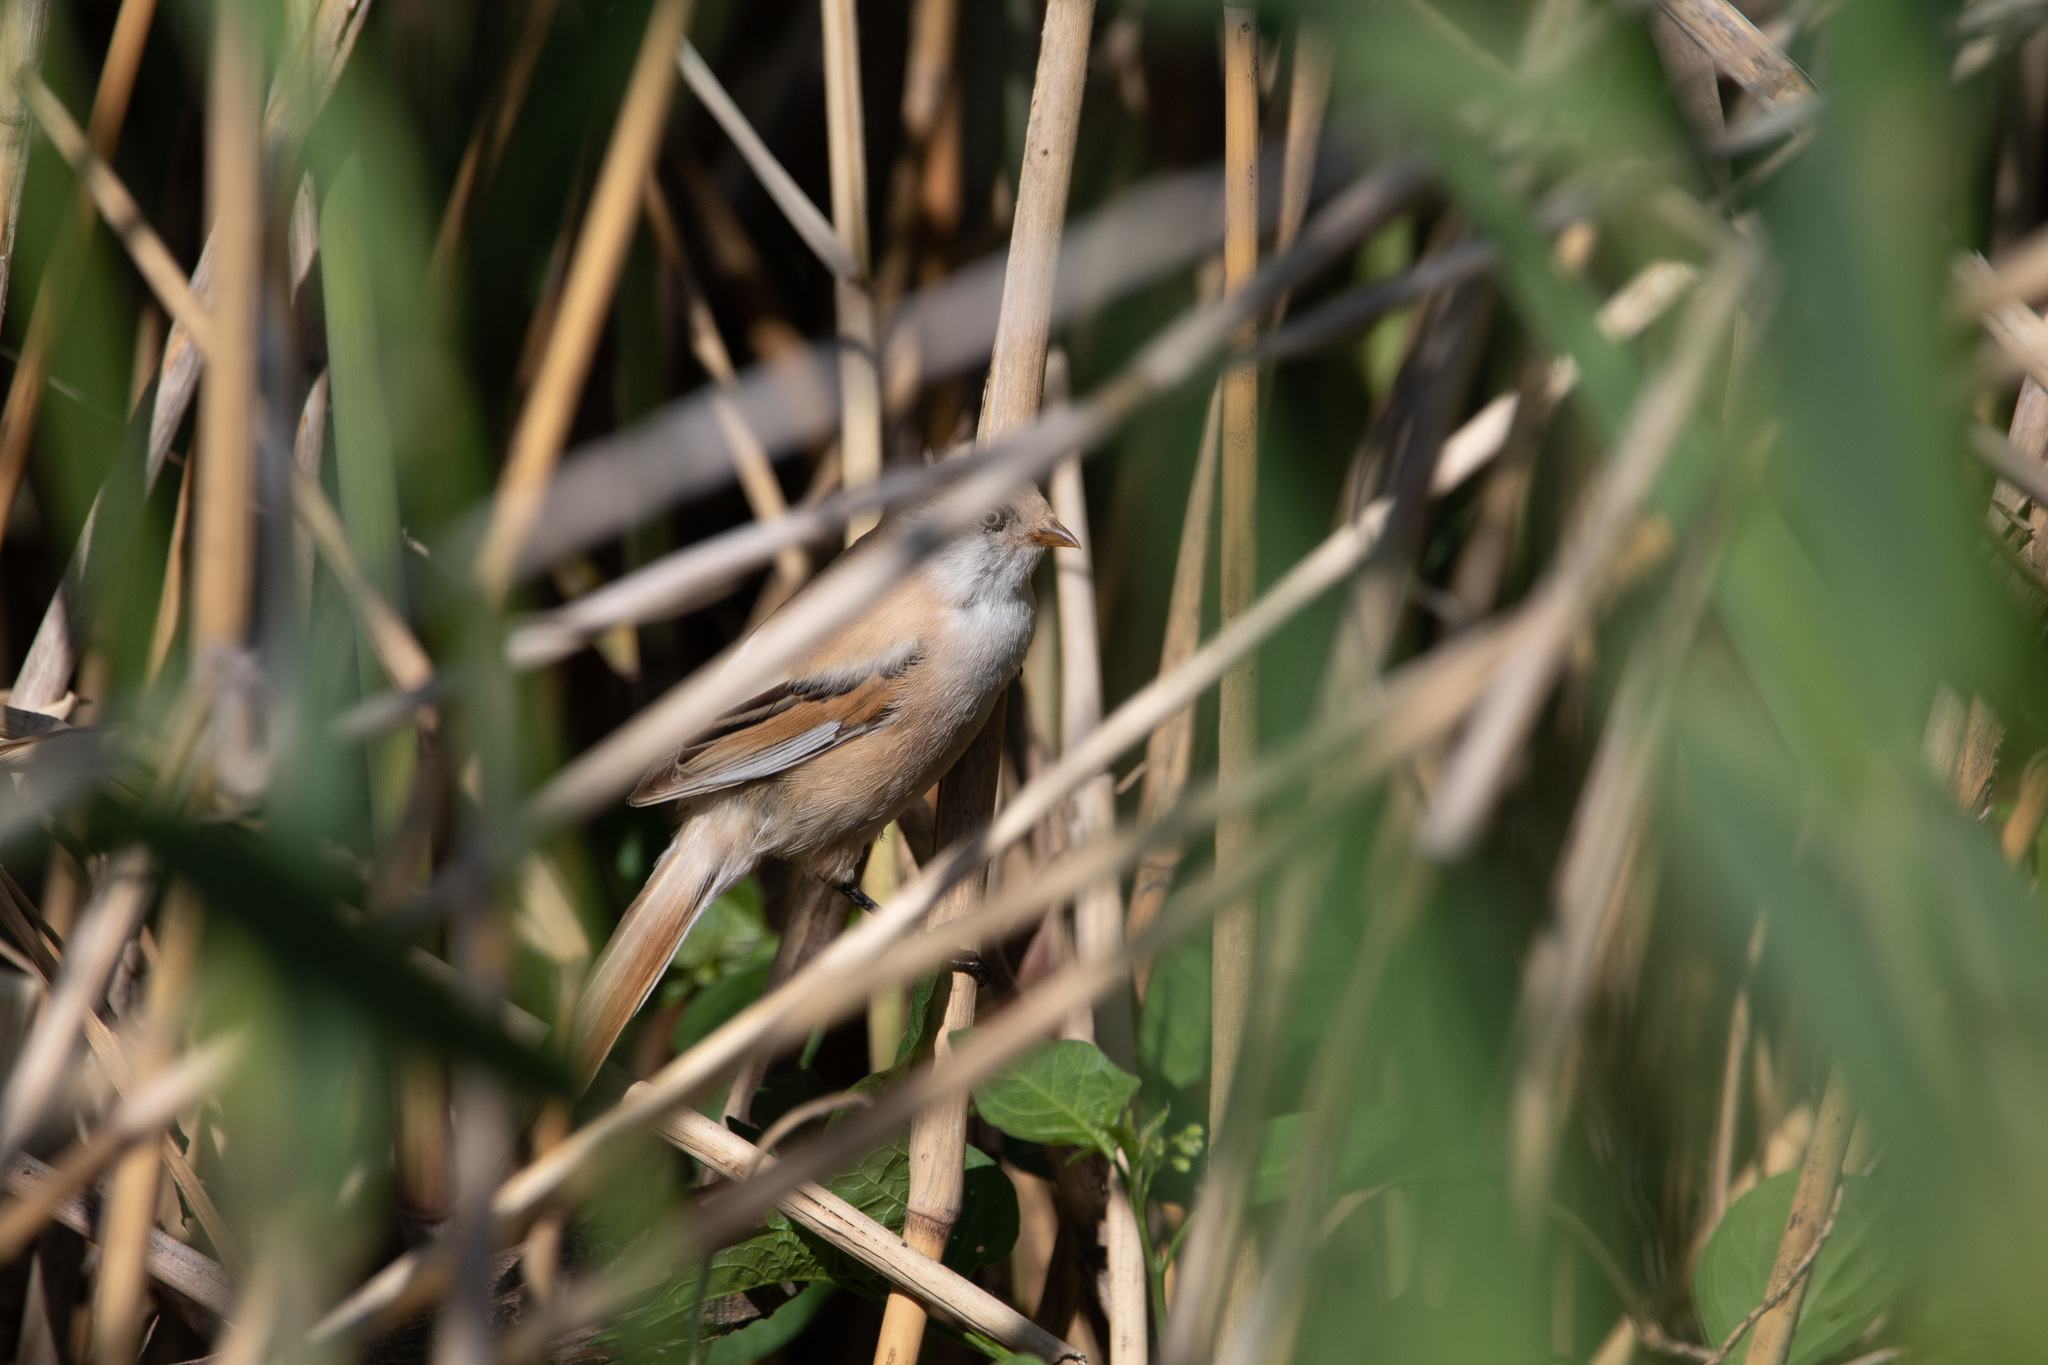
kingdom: Animalia
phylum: Chordata
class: Aves
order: Passeriformes
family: Panuridae
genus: Panurus
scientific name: Panurus biarmicus
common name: Bearded reedling
